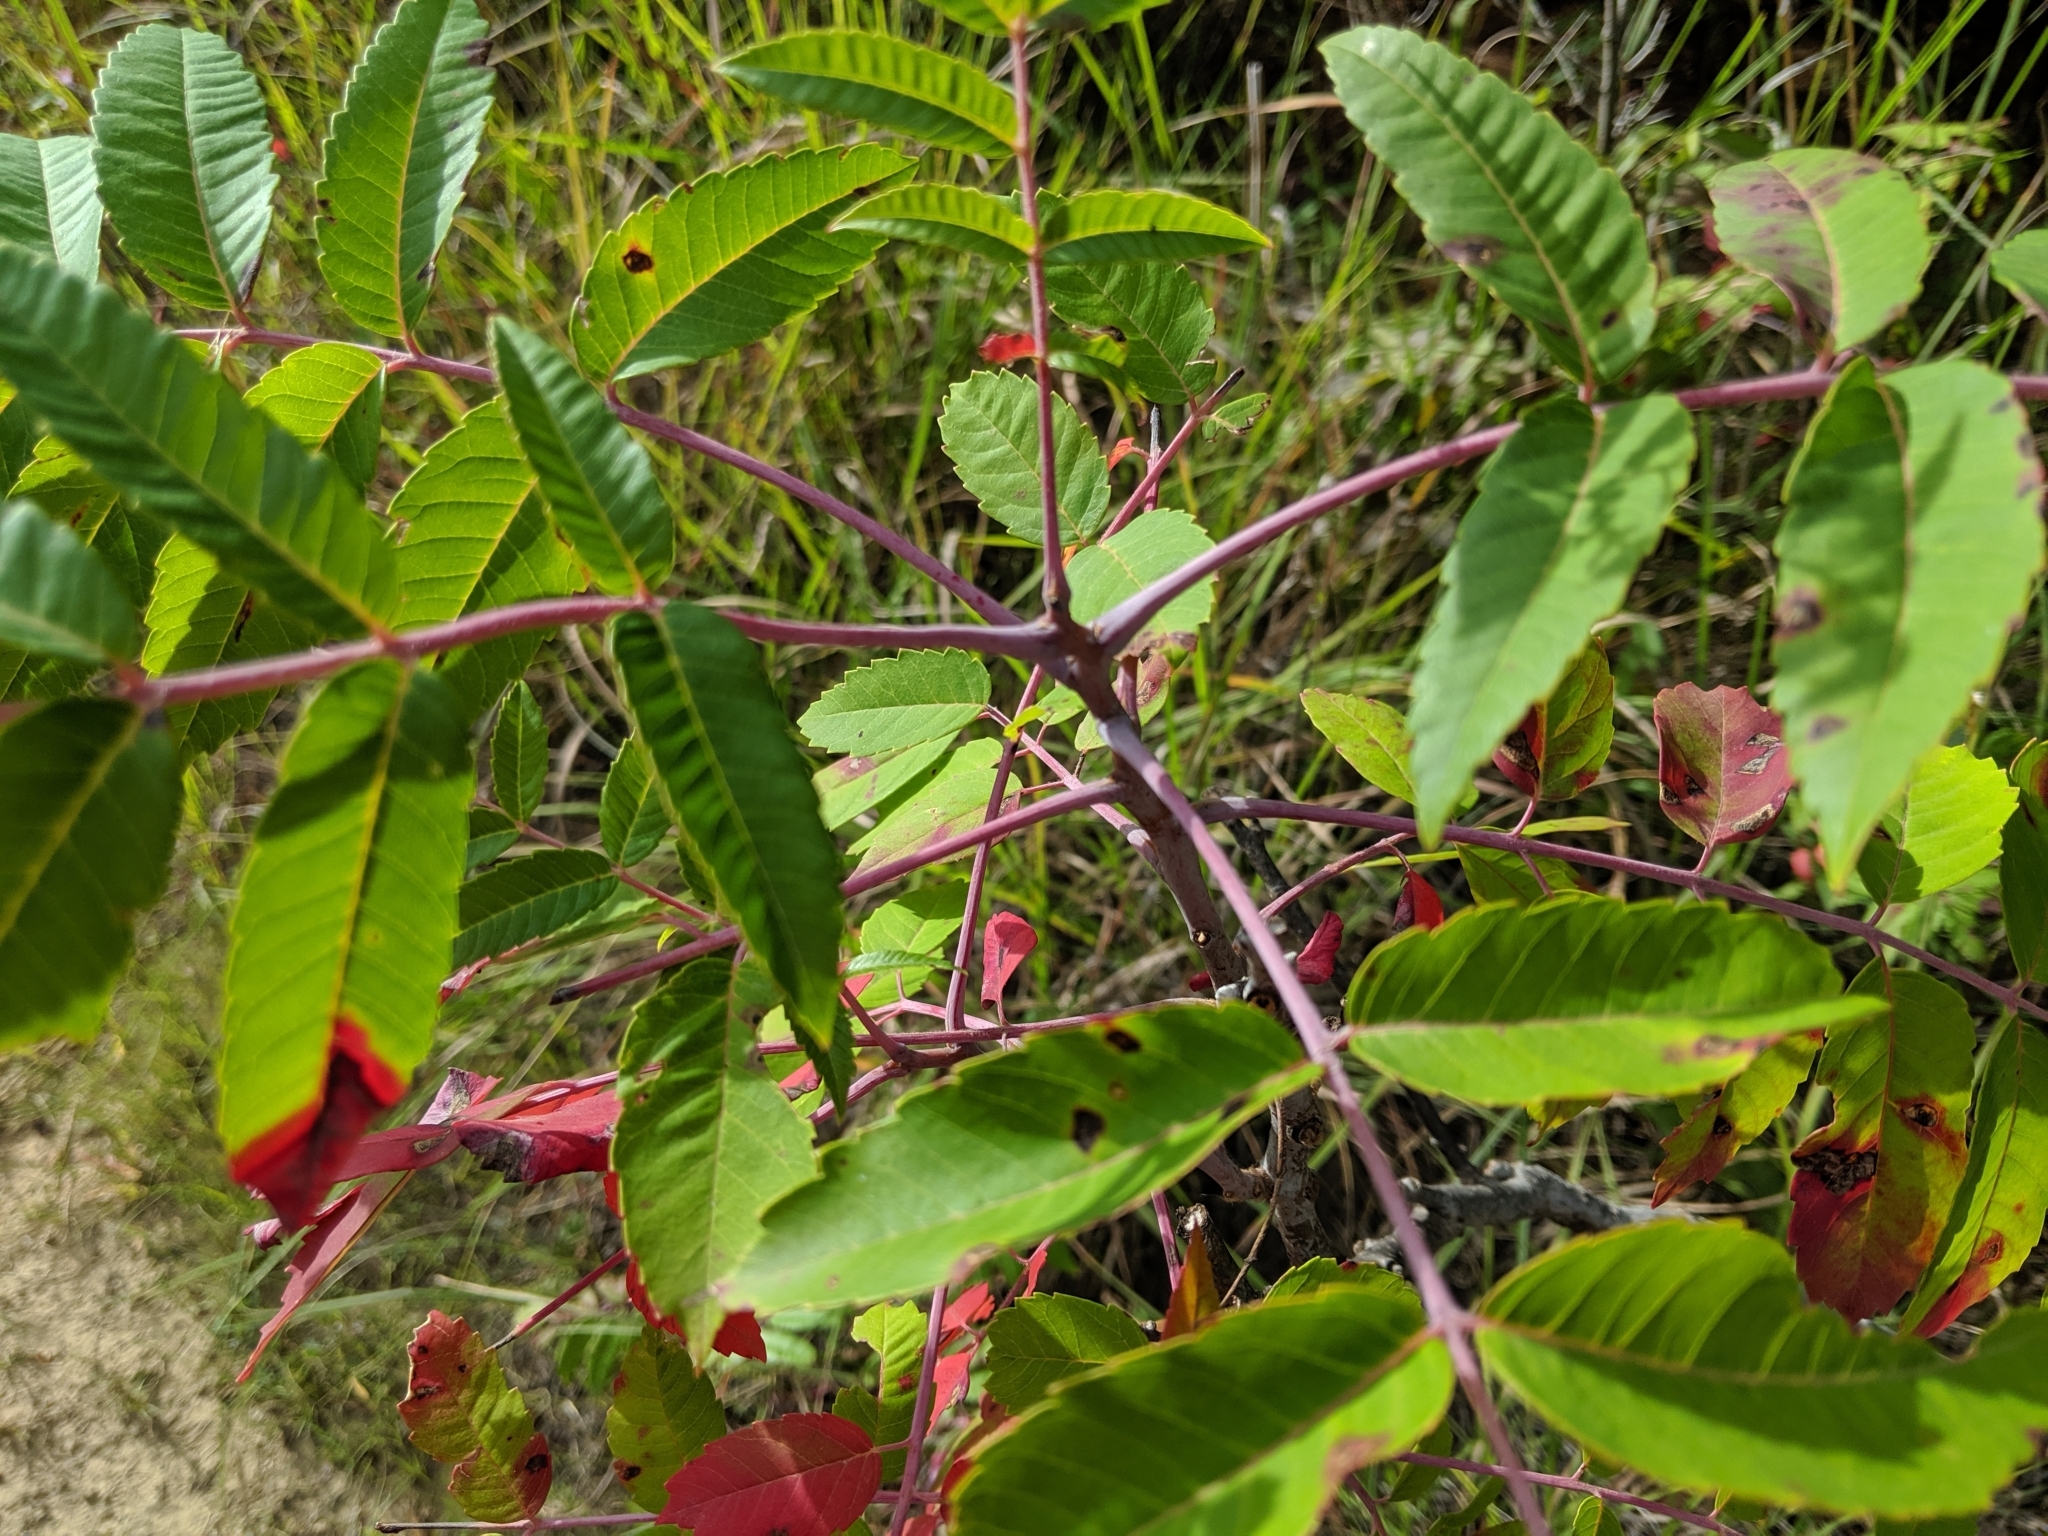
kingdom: Plantae
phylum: Tracheophyta
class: Magnoliopsida
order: Sapindales
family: Anacardiaceae
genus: Rhus
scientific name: Rhus glabra
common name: Scarlet sumac
